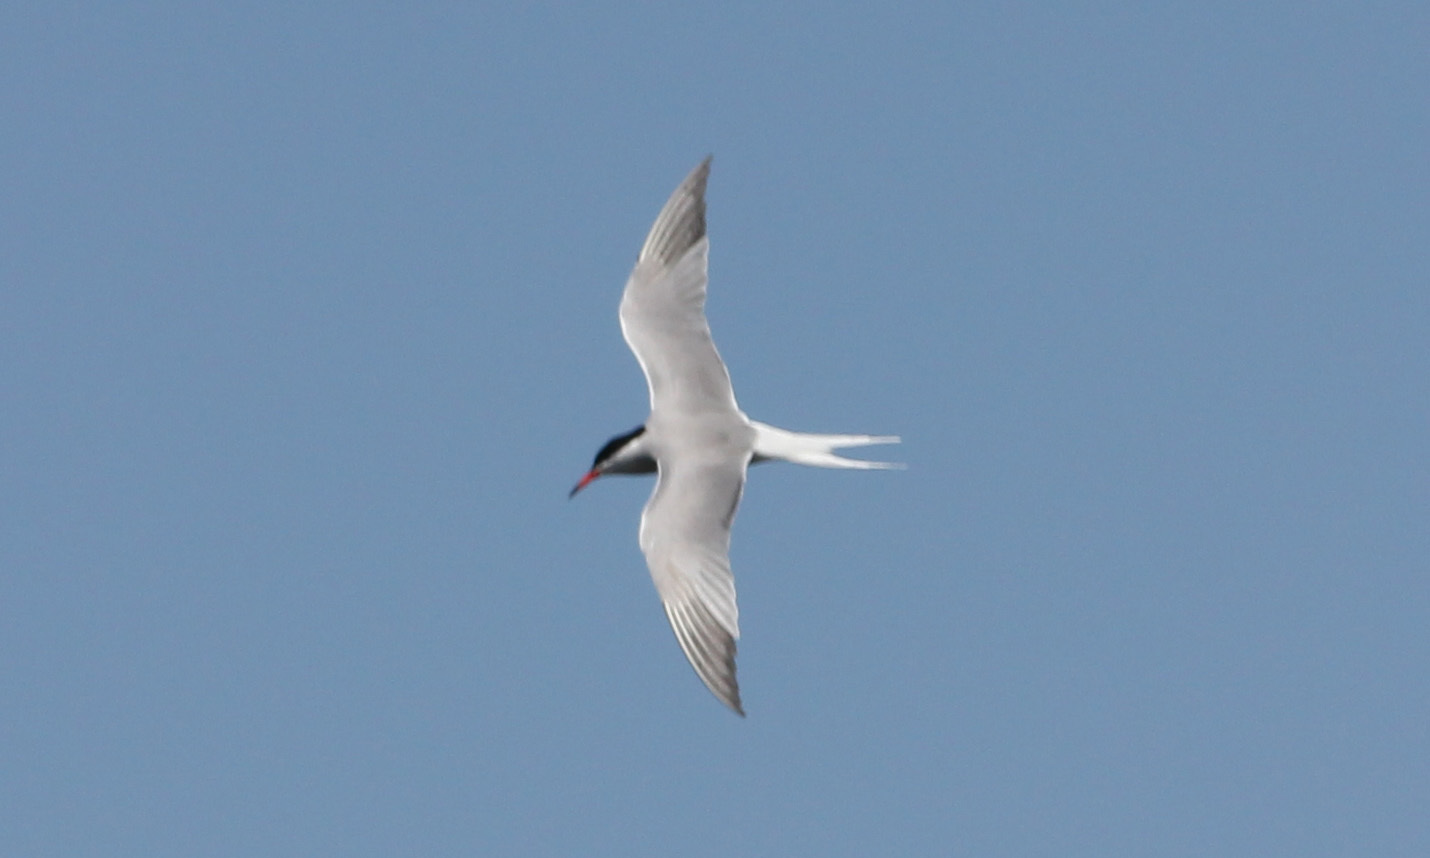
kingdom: Animalia
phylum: Chordata
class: Aves
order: Charadriiformes
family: Laridae
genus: Sterna
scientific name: Sterna hirundo
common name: Common tern
